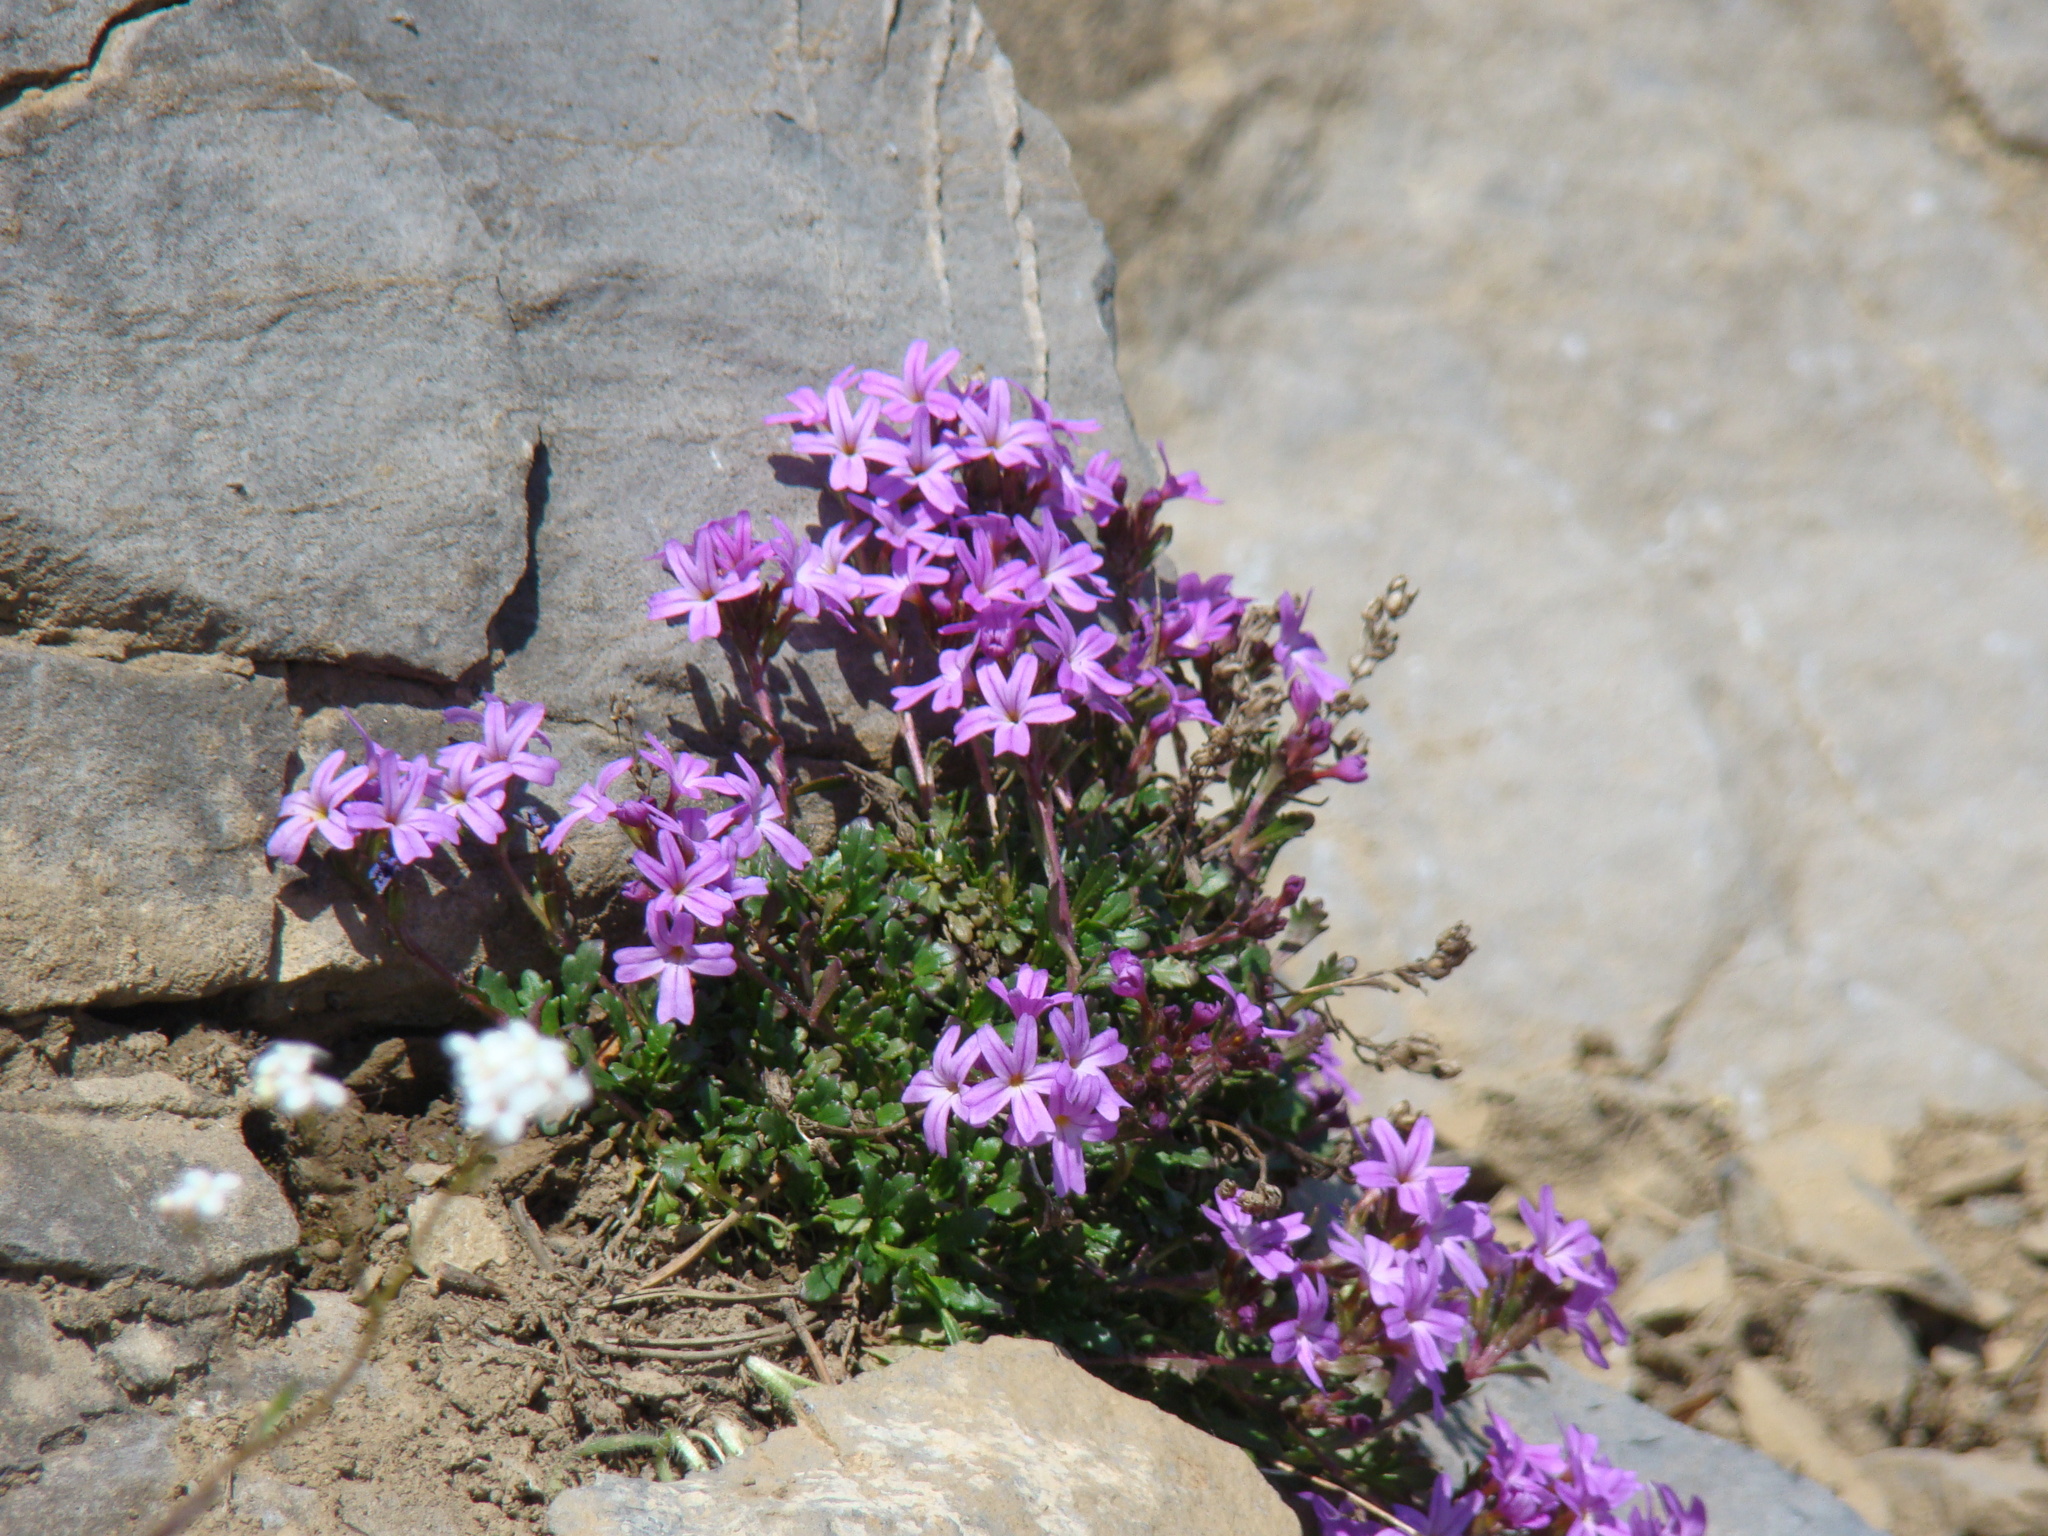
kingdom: Plantae
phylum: Tracheophyta
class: Magnoliopsida
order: Lamiales
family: Plantaginaceae
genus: Erinus
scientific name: Erinus alpinus
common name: Fairy foxglove
